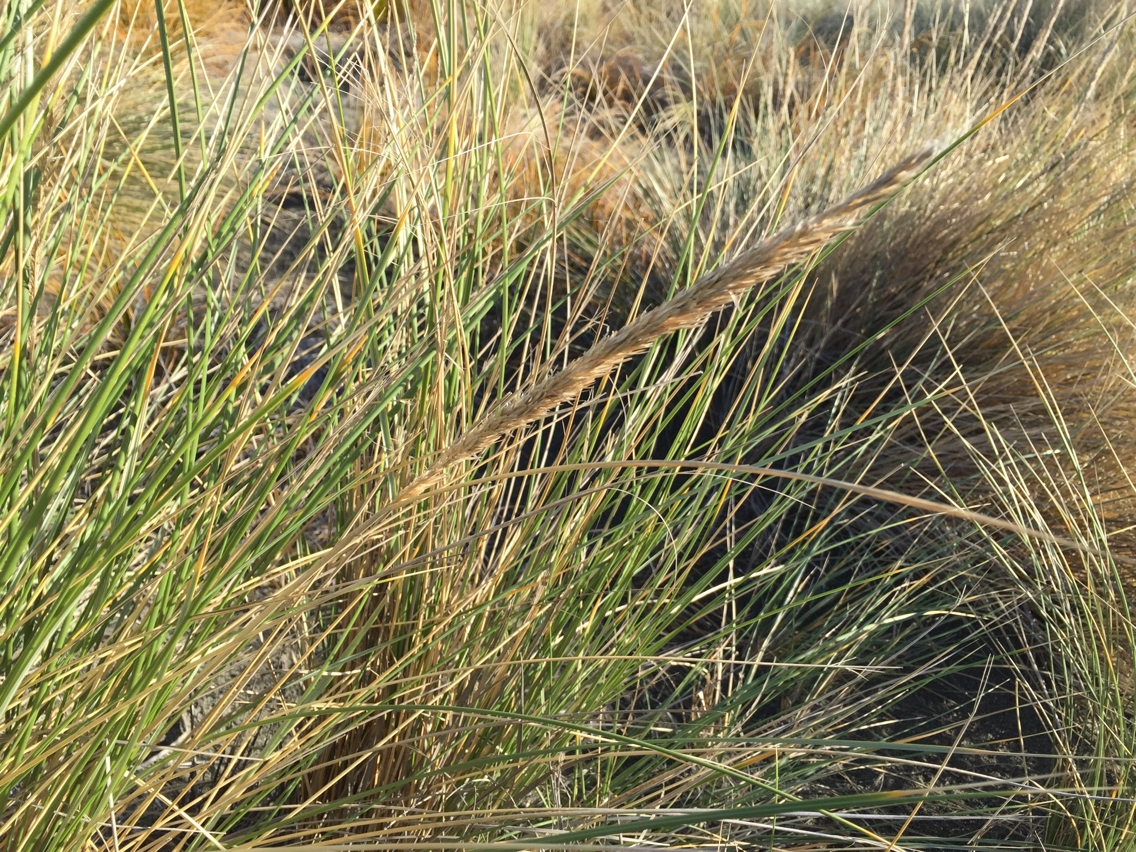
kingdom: Plantae
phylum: Tracheophyta
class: Liliopsida
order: Poales
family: Poaceae
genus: Calamagrostis
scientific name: Calamagrostis arenaria
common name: European beachgrass
